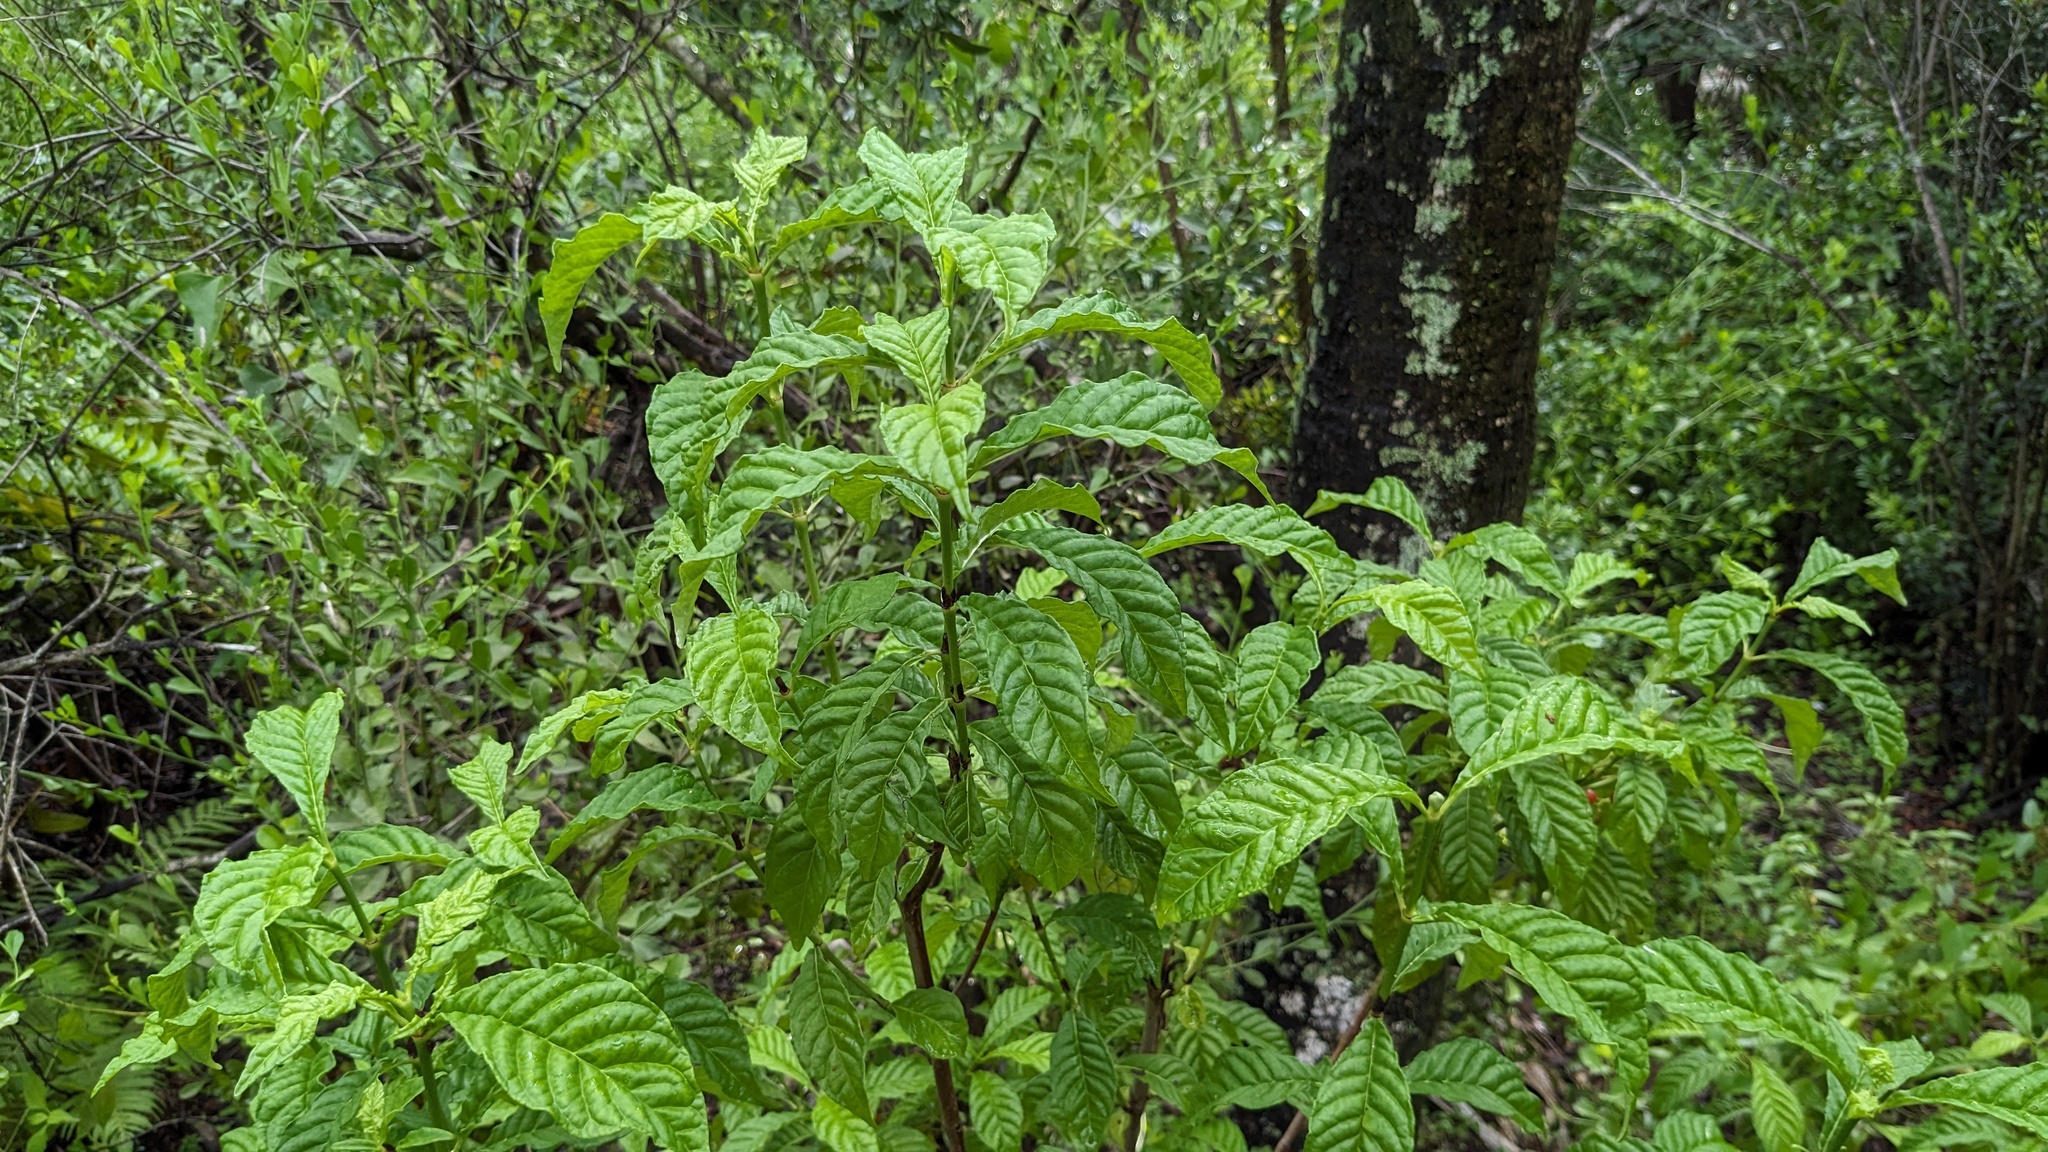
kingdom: Plantae
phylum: Tracheophyta
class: Magnoliopsida
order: Gentianales
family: Rubiaceae
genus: Psychotria
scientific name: Psychotria nervosa
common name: Bastard cankerberry
